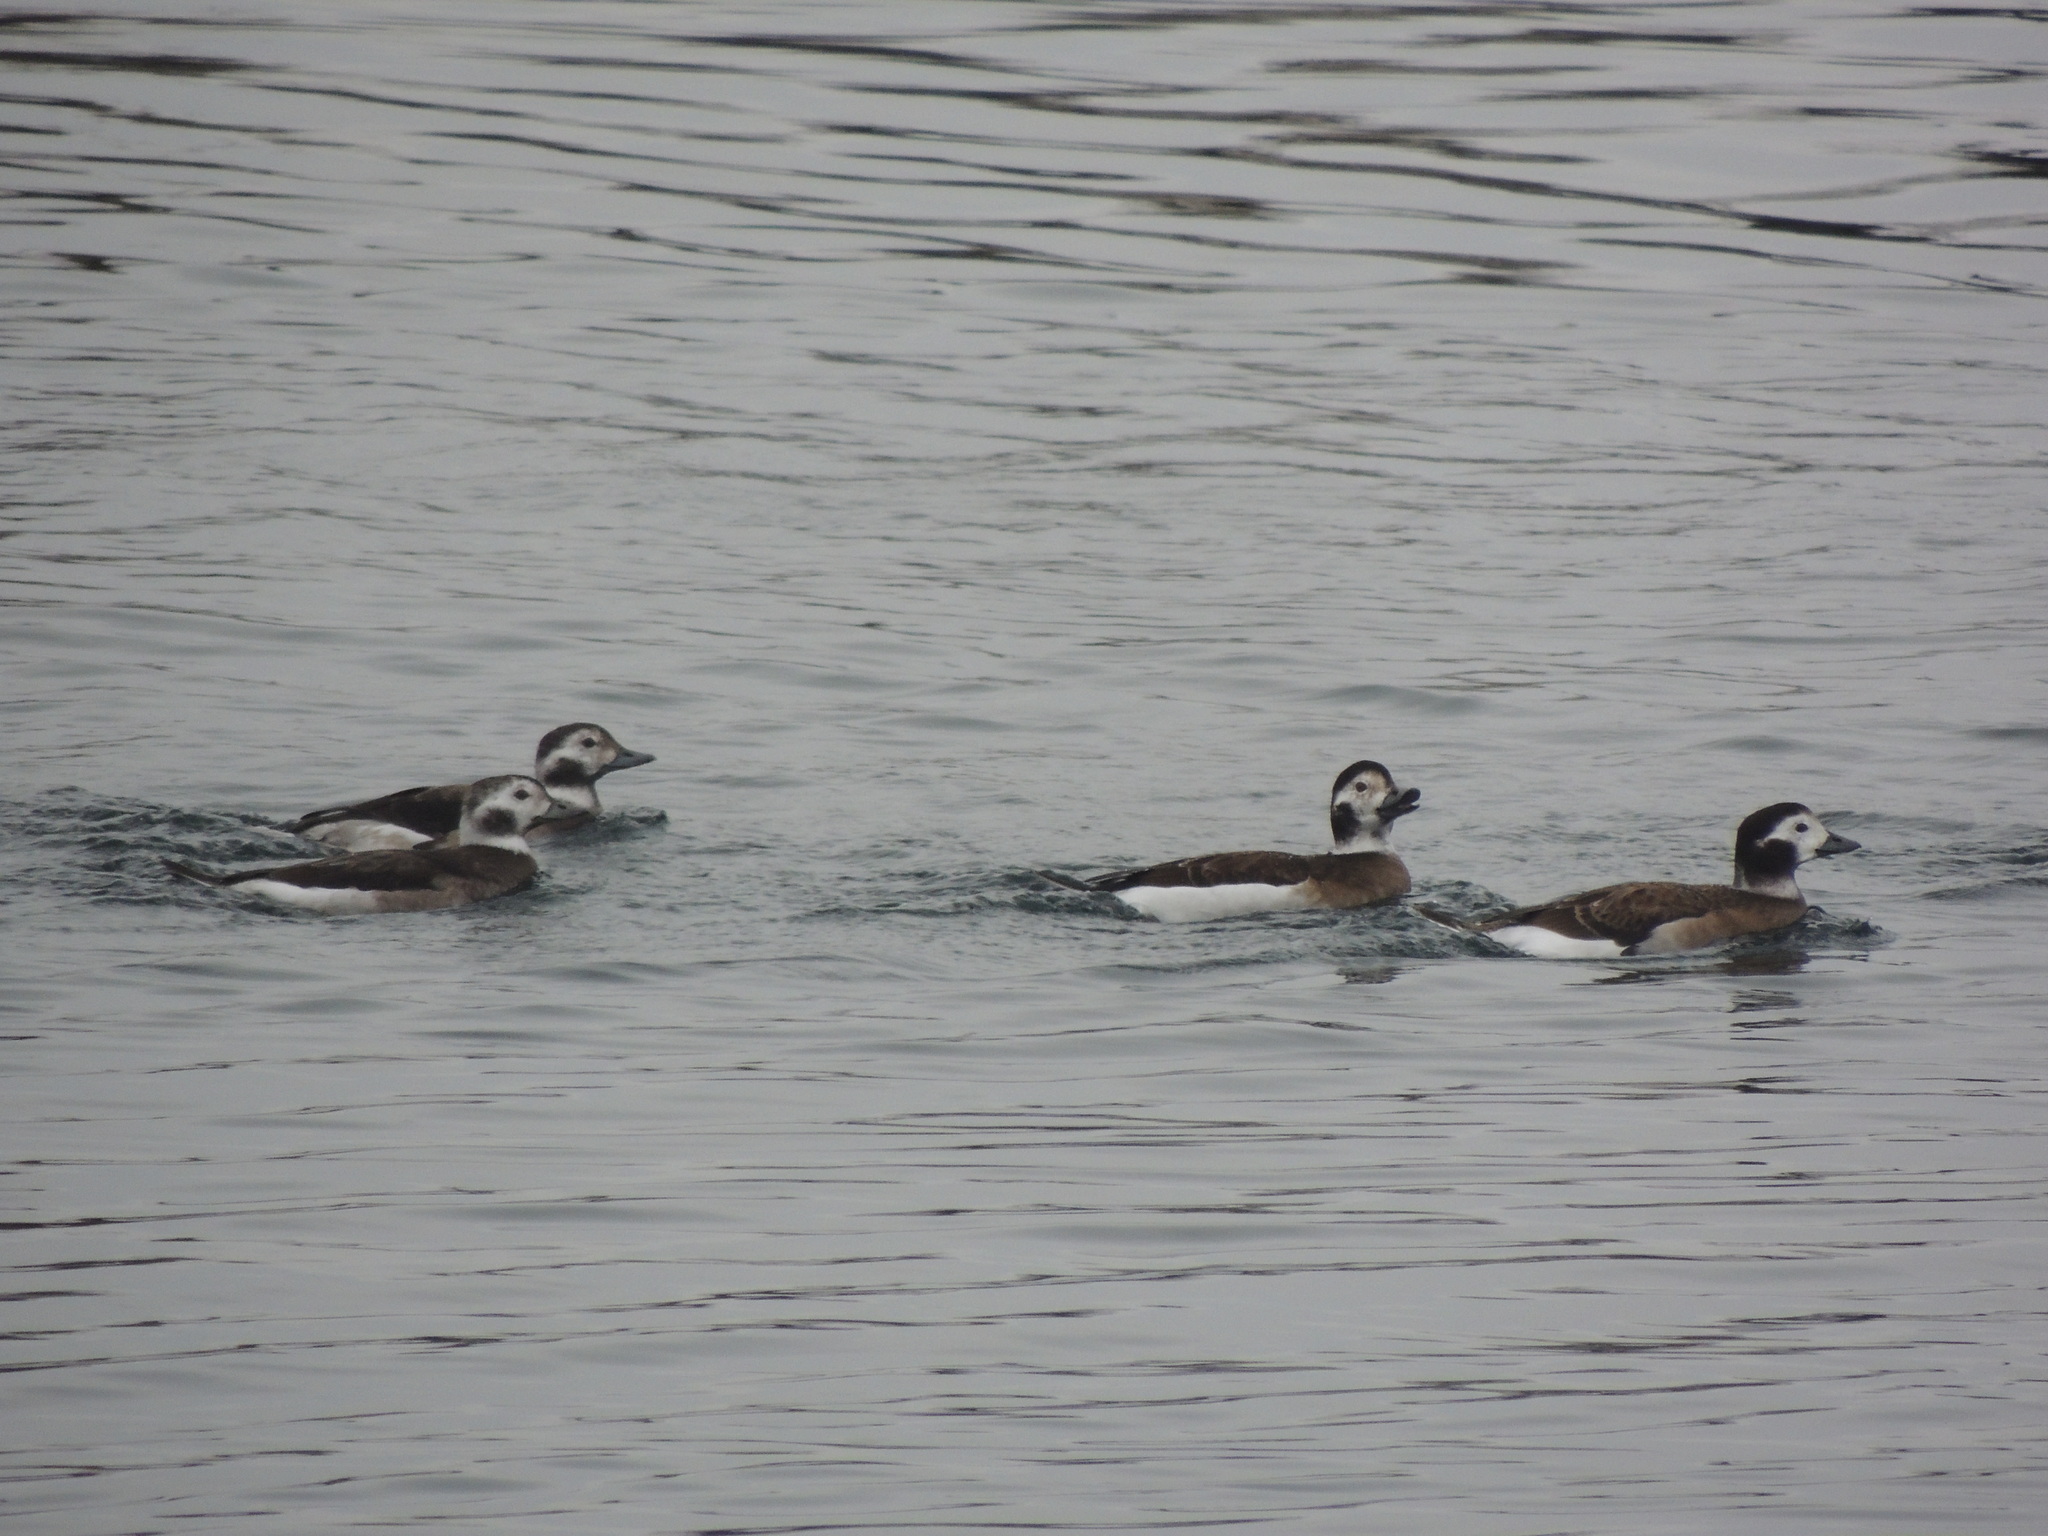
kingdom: Animalia
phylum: Chordata
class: Aves
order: Anseriformes
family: Anatidae
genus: Clangula
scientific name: Clangula hyemalis
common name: Long-tailed duck
